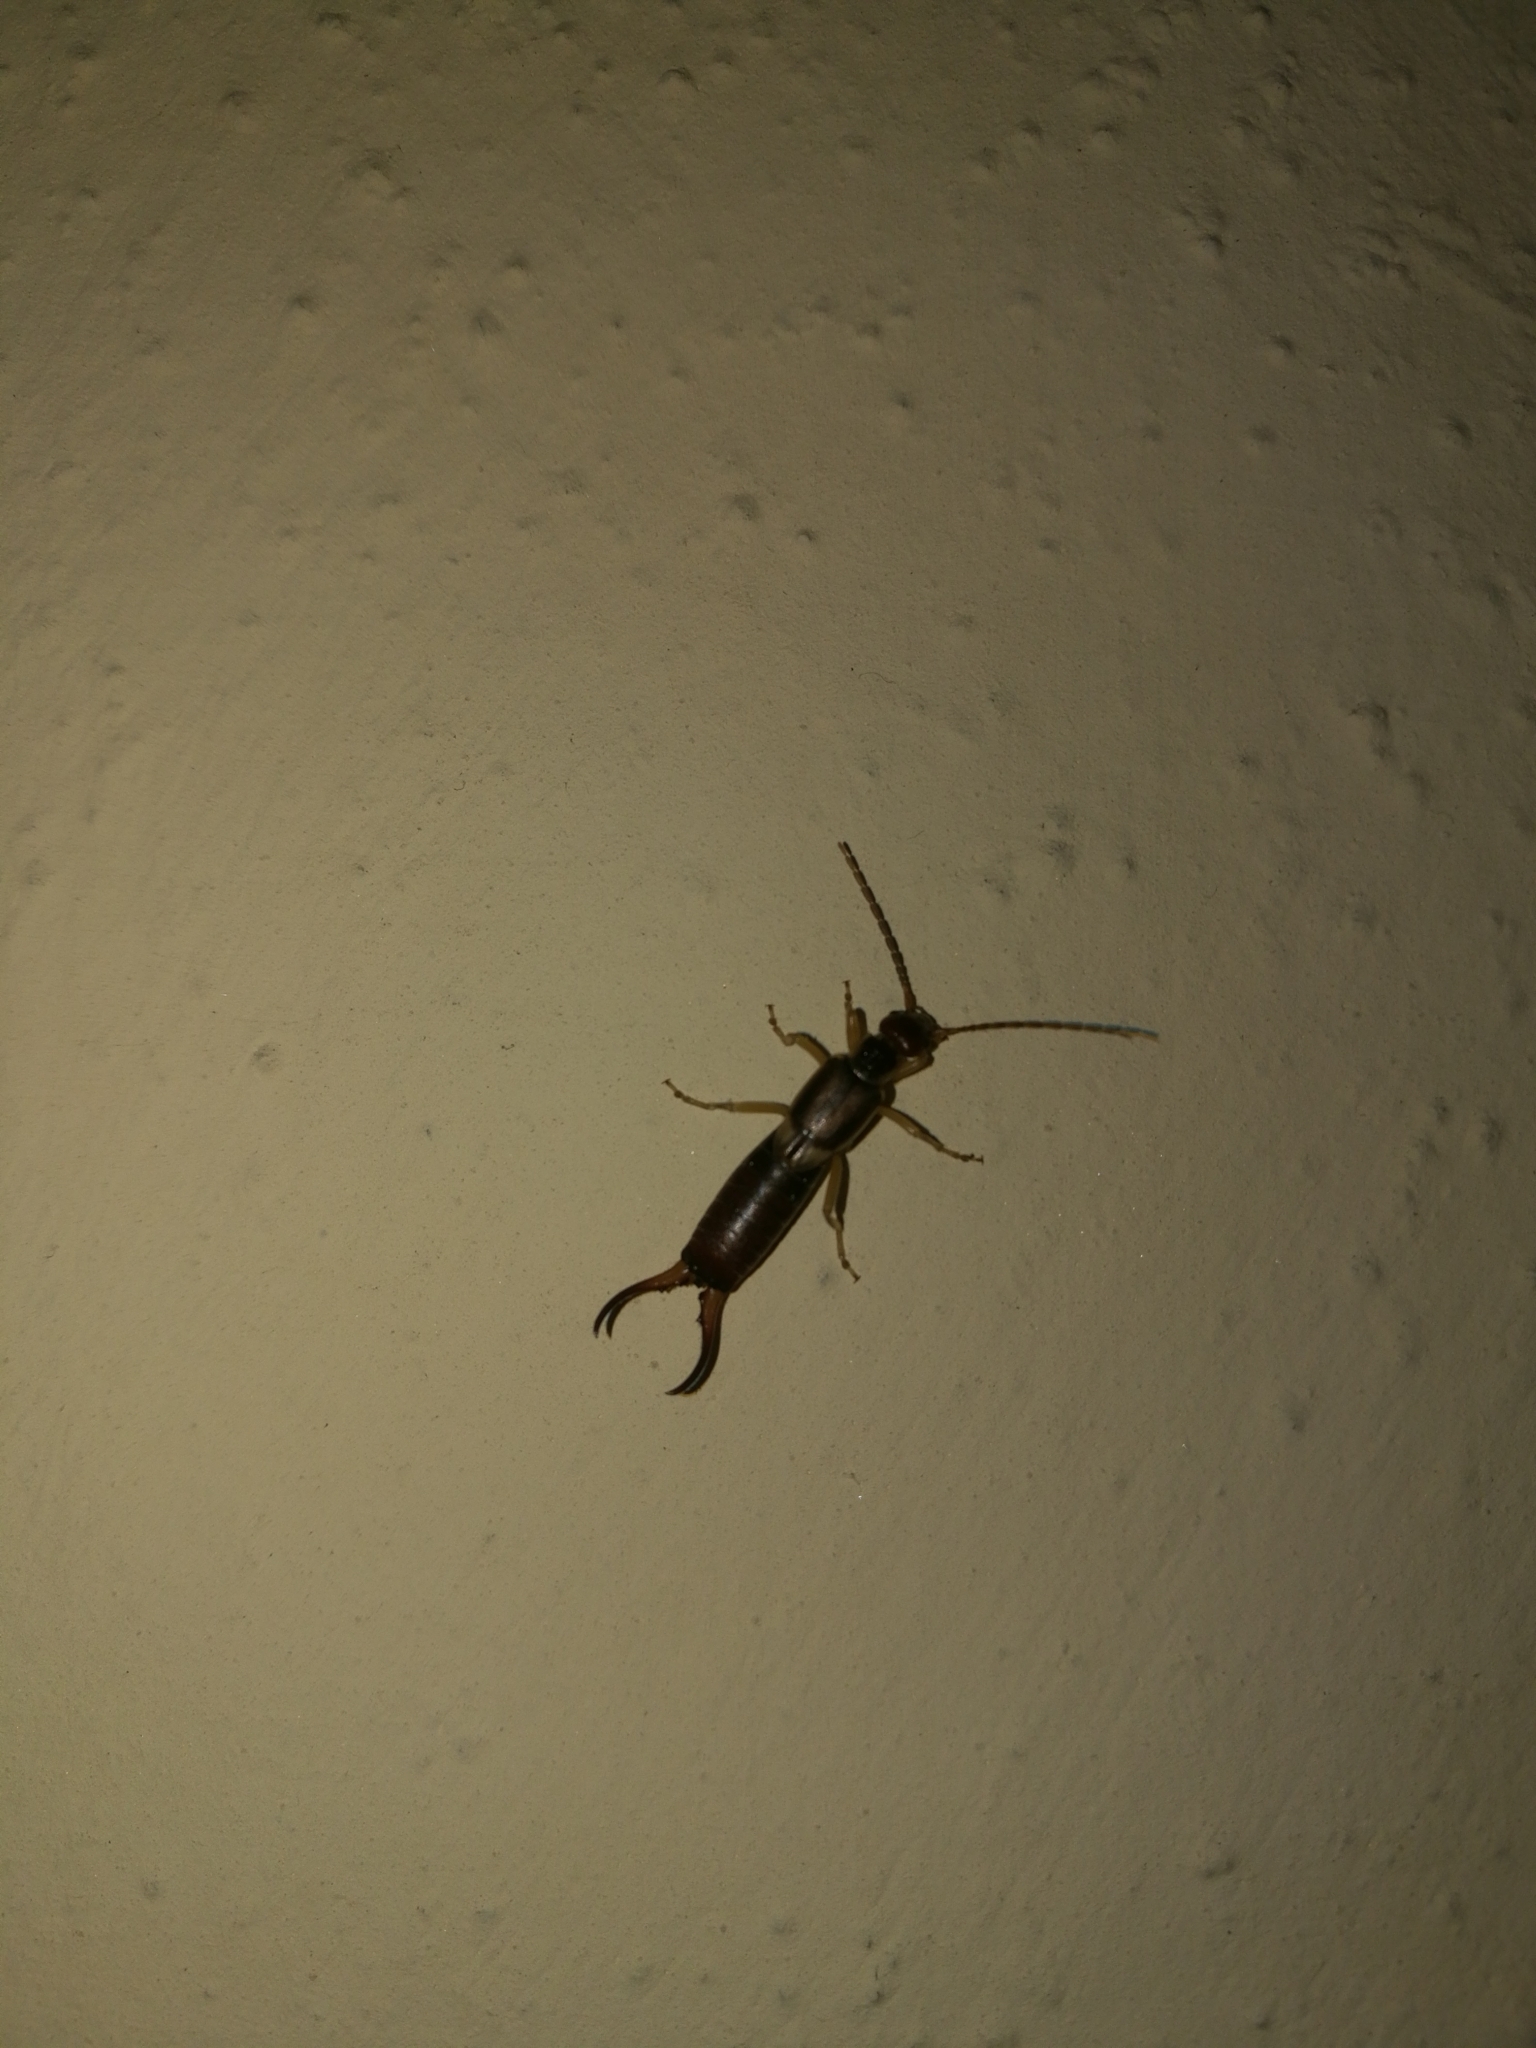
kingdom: Animalia
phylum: Arthropoda
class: Insecta
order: Dermaptera
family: Forficulidae
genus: Forficula
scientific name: Forficula
